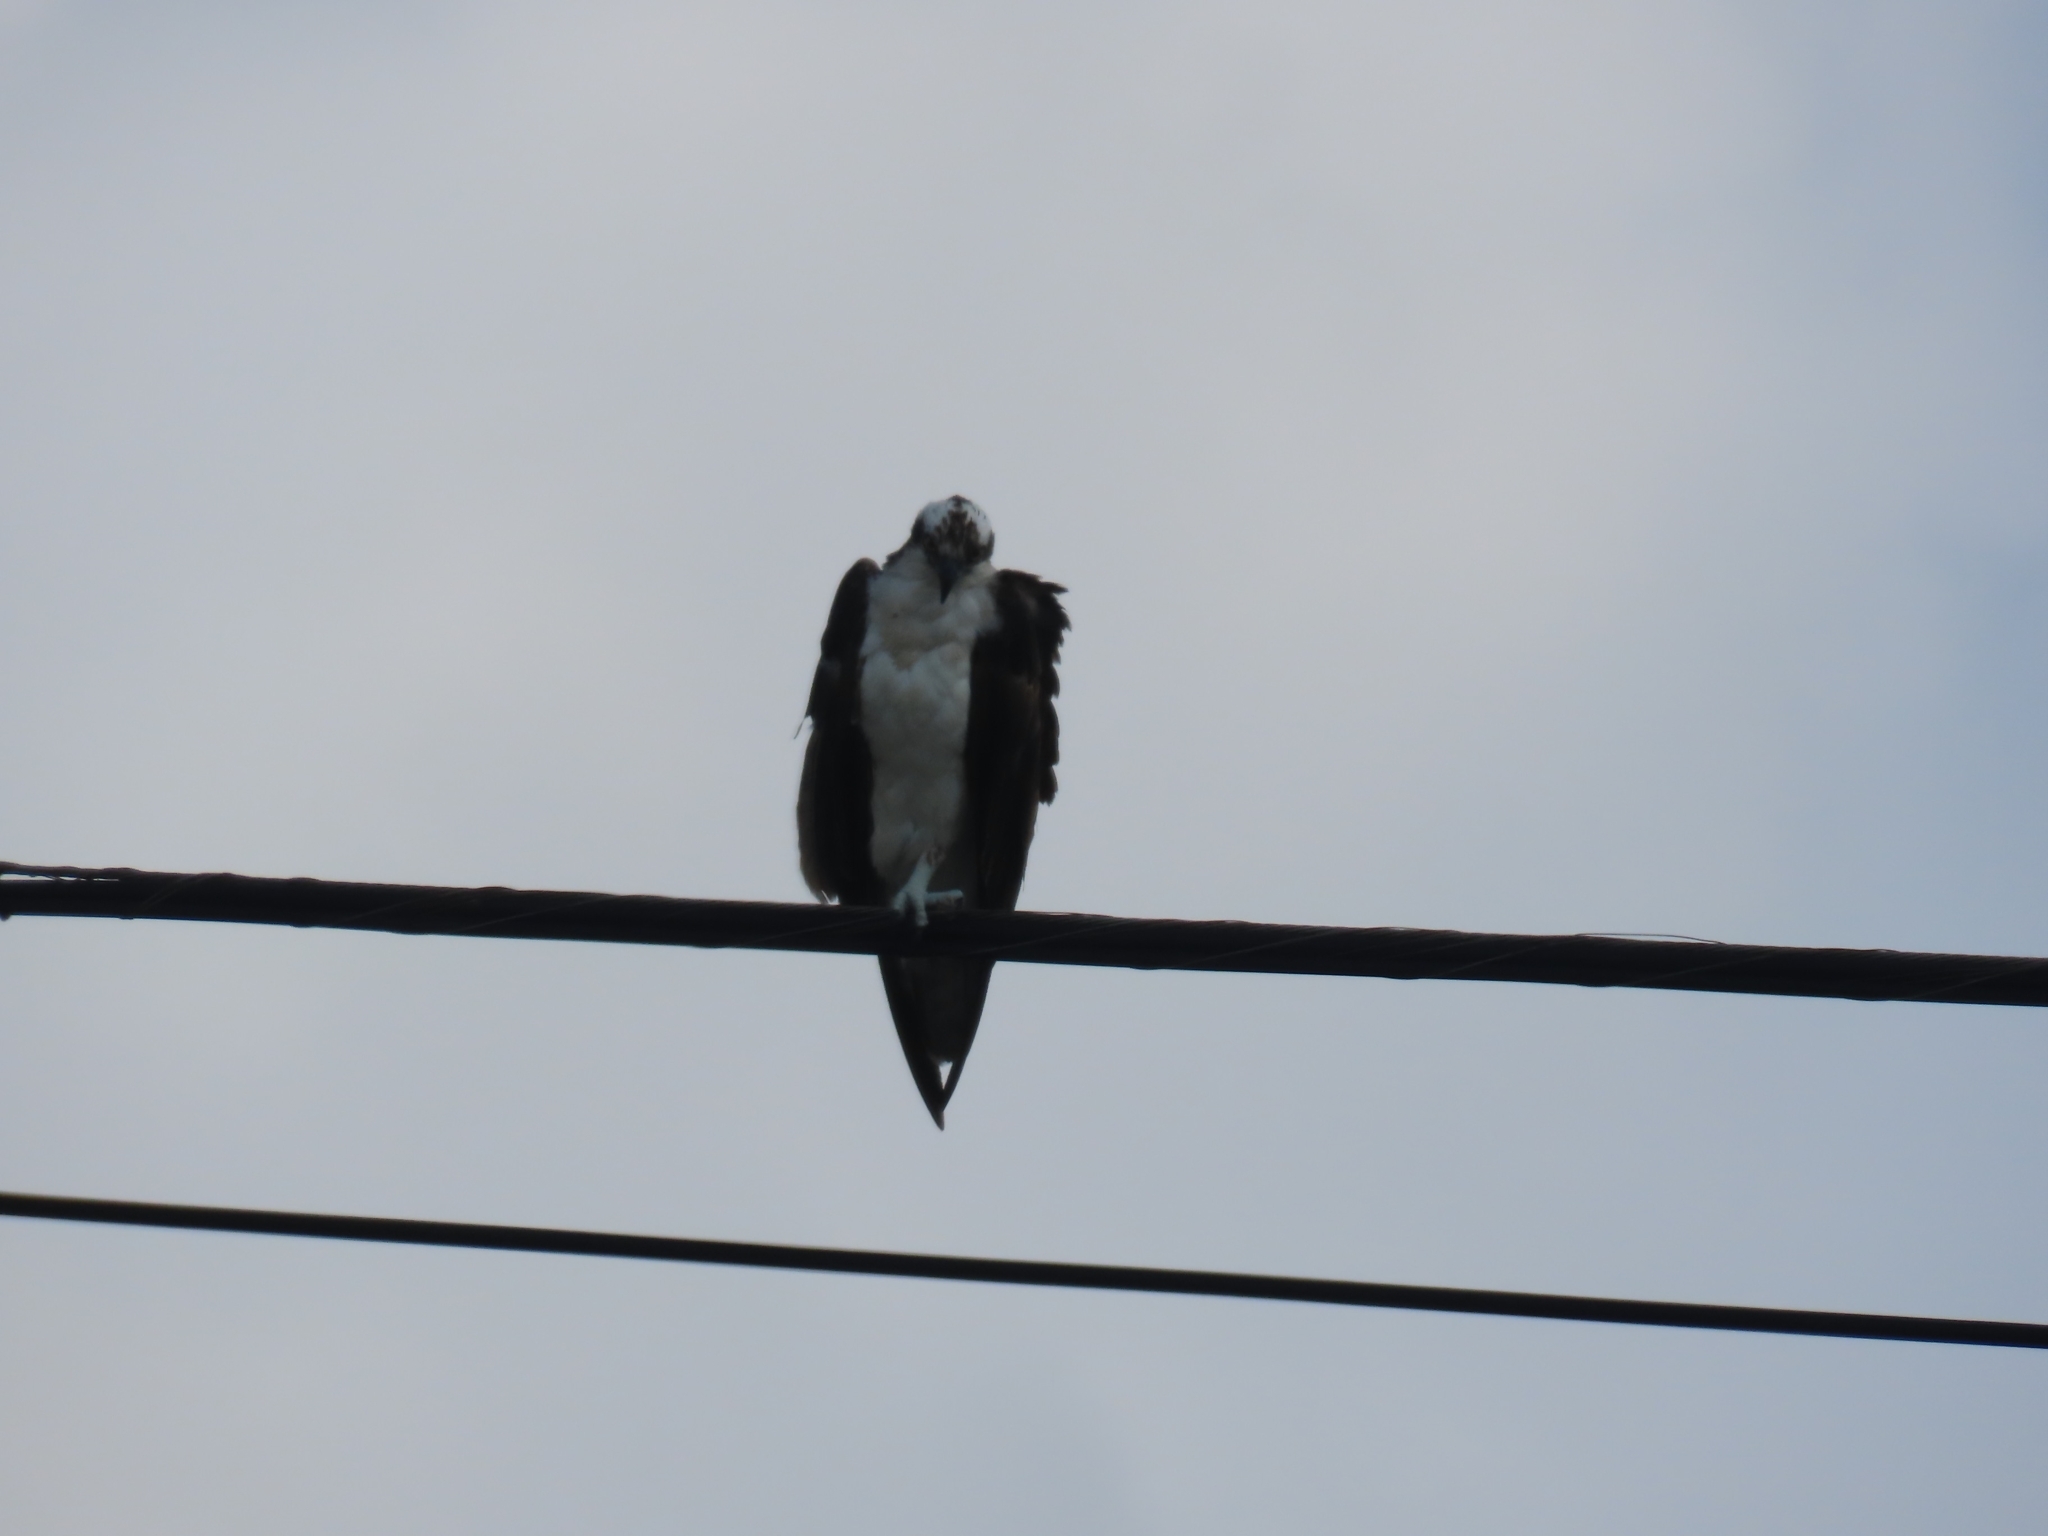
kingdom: Animalia
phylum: Chordata
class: Aves
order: Accipitriformes
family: Pandionidae
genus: Pandion
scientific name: Pandion haliaetus
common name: Osprey
